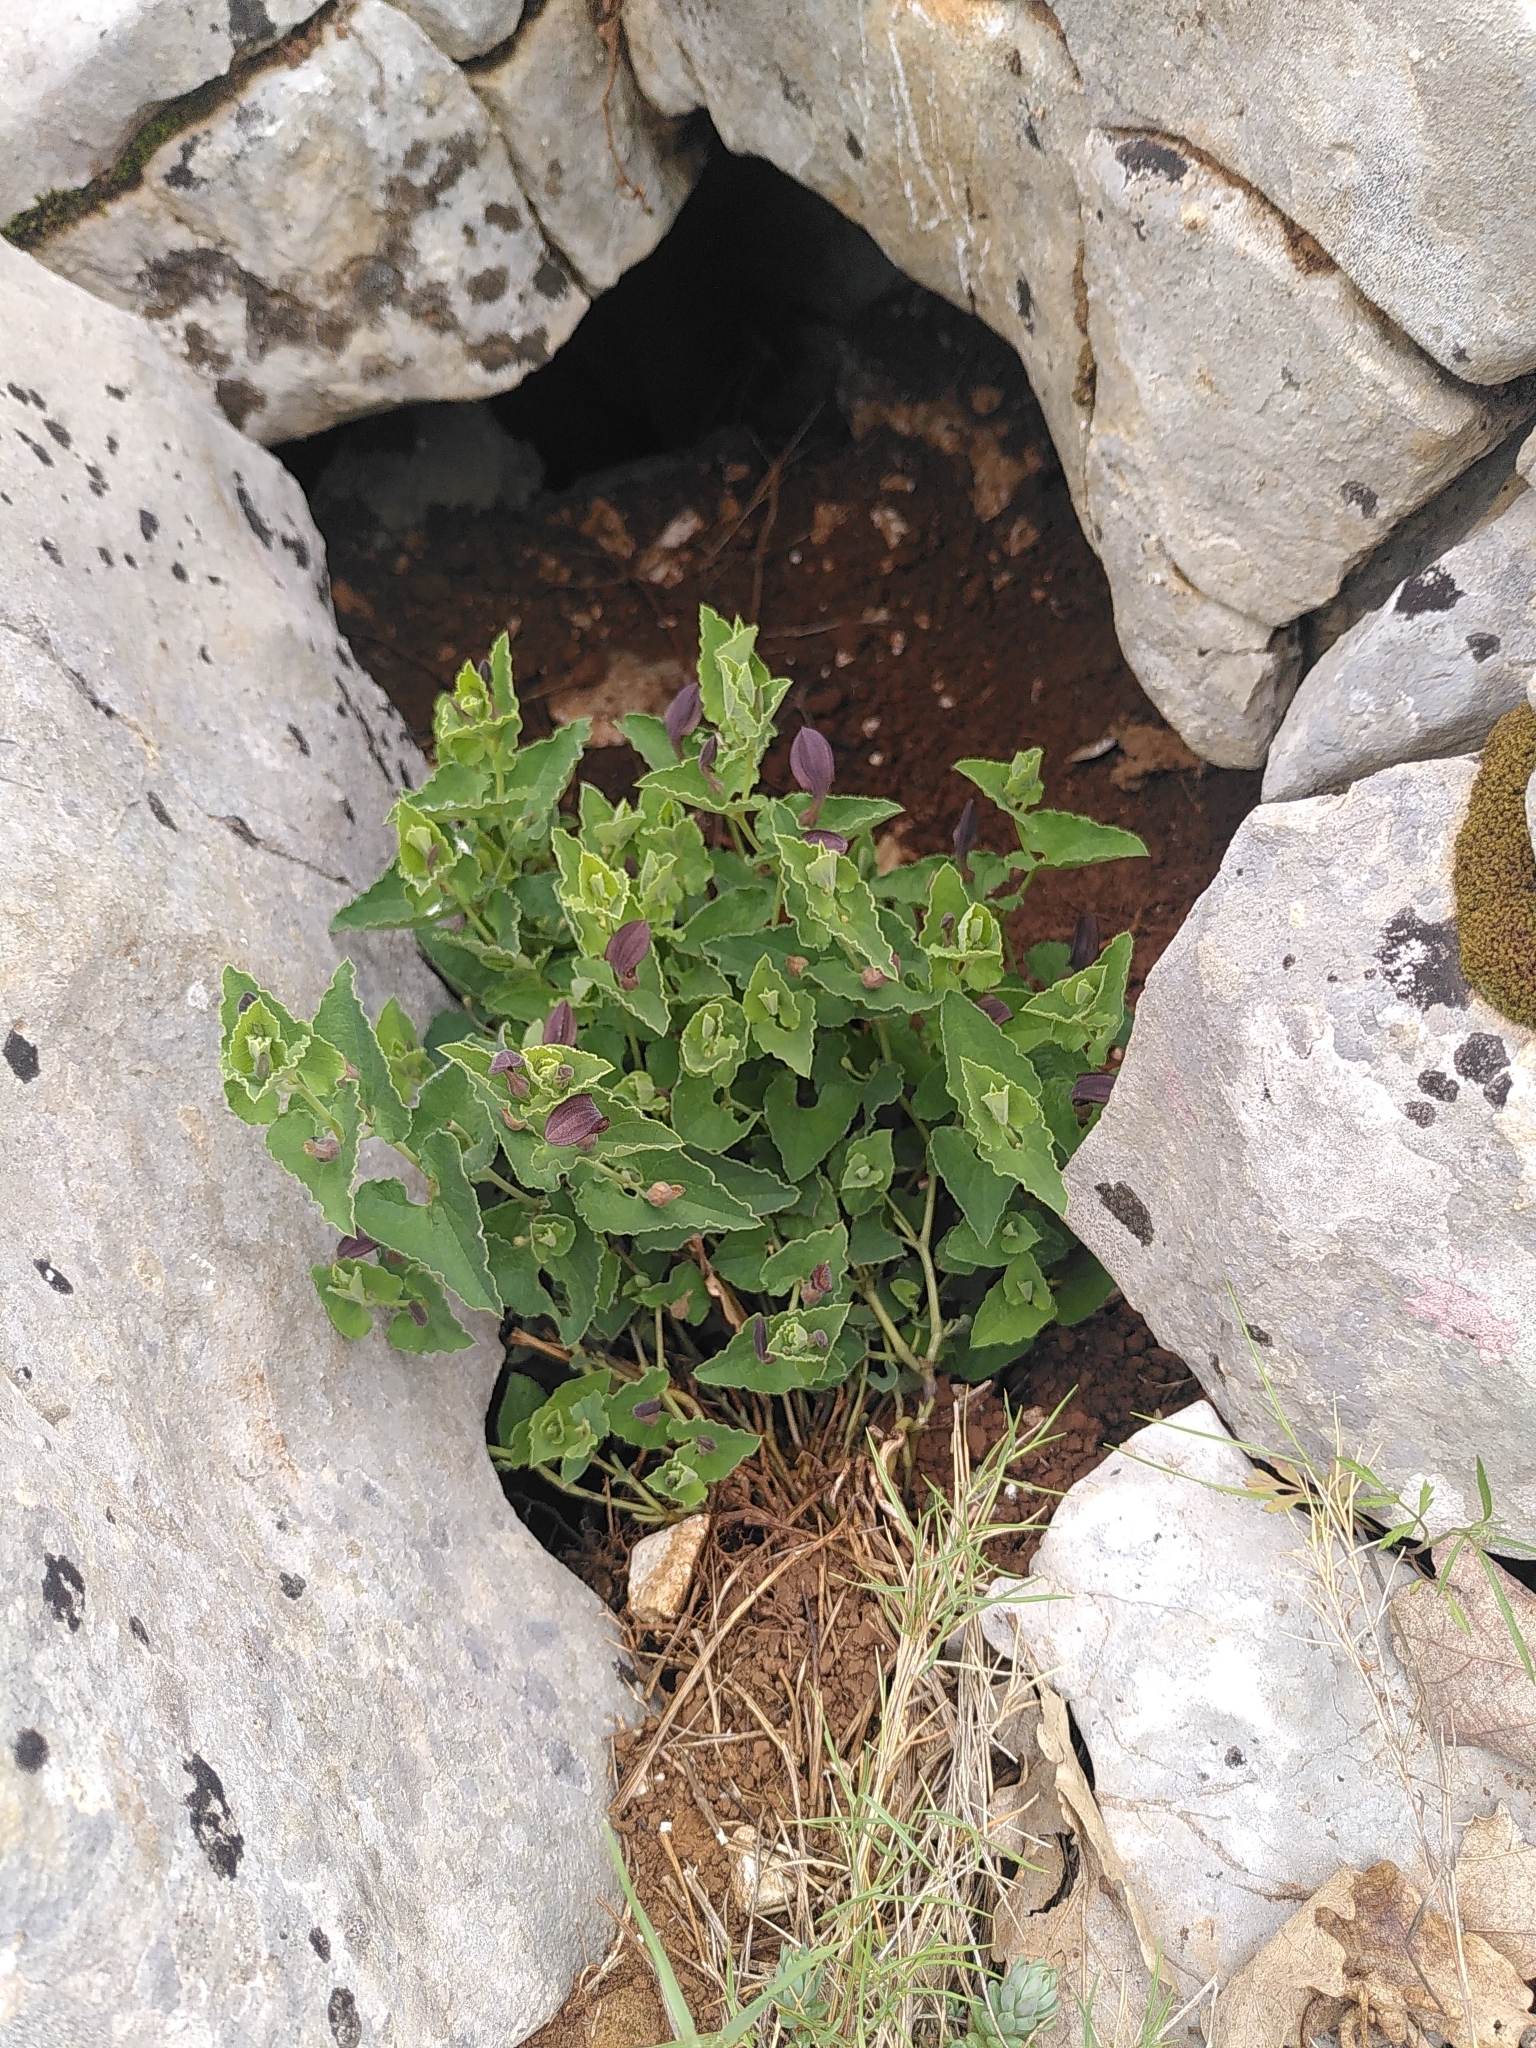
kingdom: Plantae
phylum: Tracheophyta
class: Magnoliopsida
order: Piperales
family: Aristolochiaceae
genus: Aristolochia
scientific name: Aristolochia pistolochia
